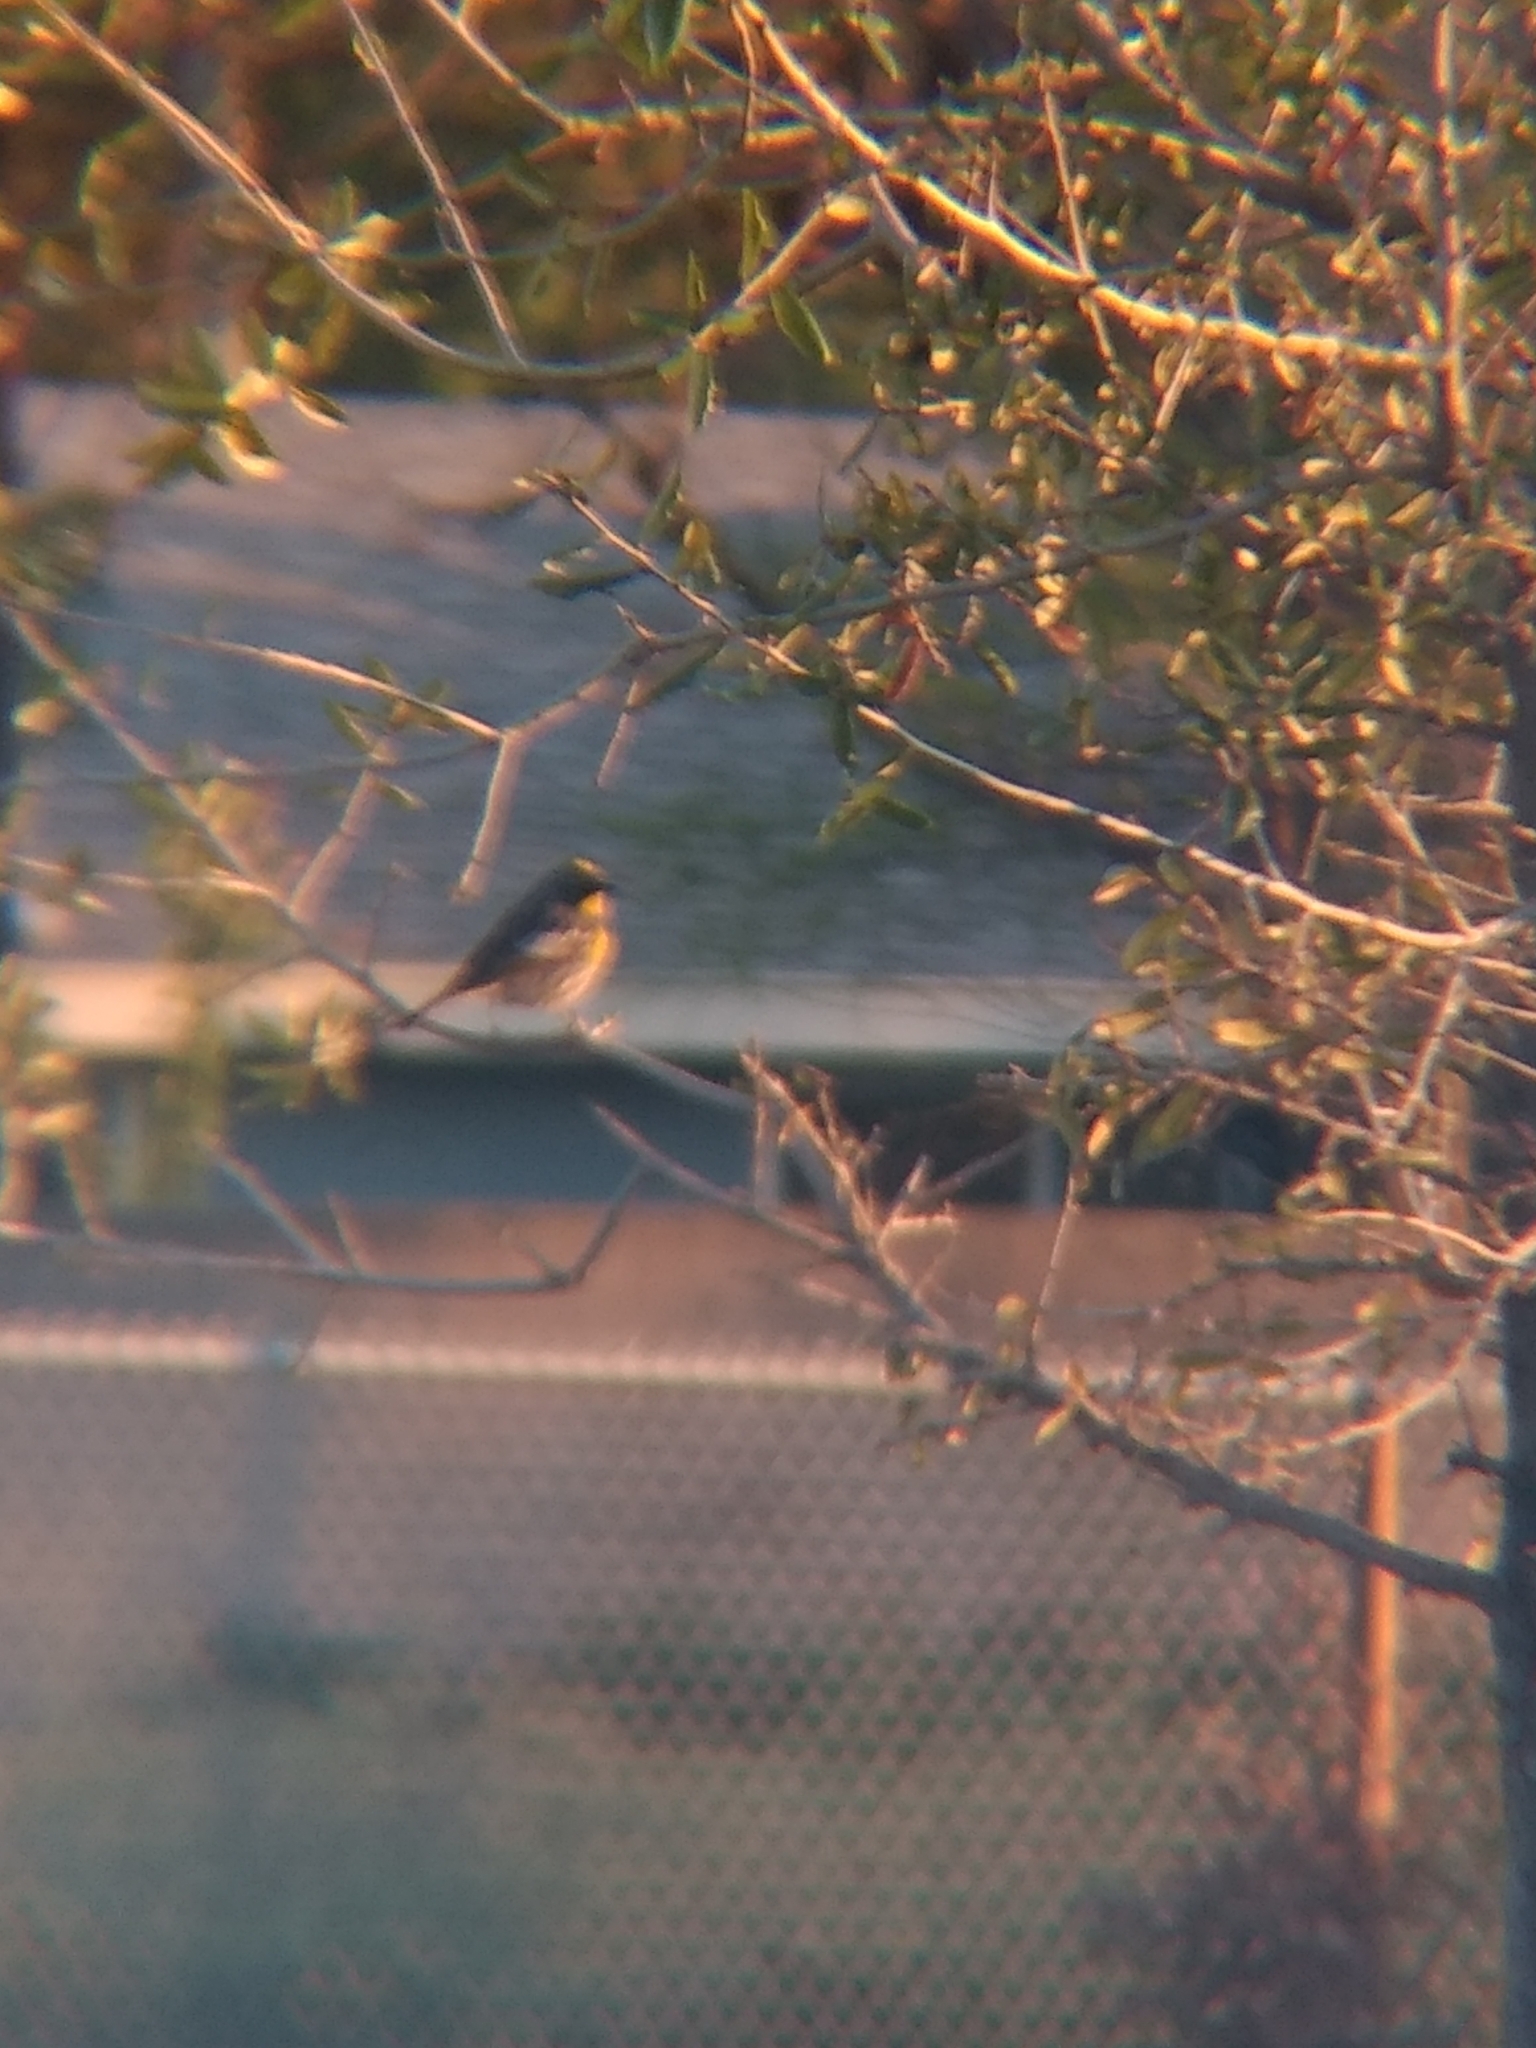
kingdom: Animalia
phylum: Chordata
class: Aves
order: Passeriformes
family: Parulidae
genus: Setophaga
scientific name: Setophaga coronata
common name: Myrtle warbler
